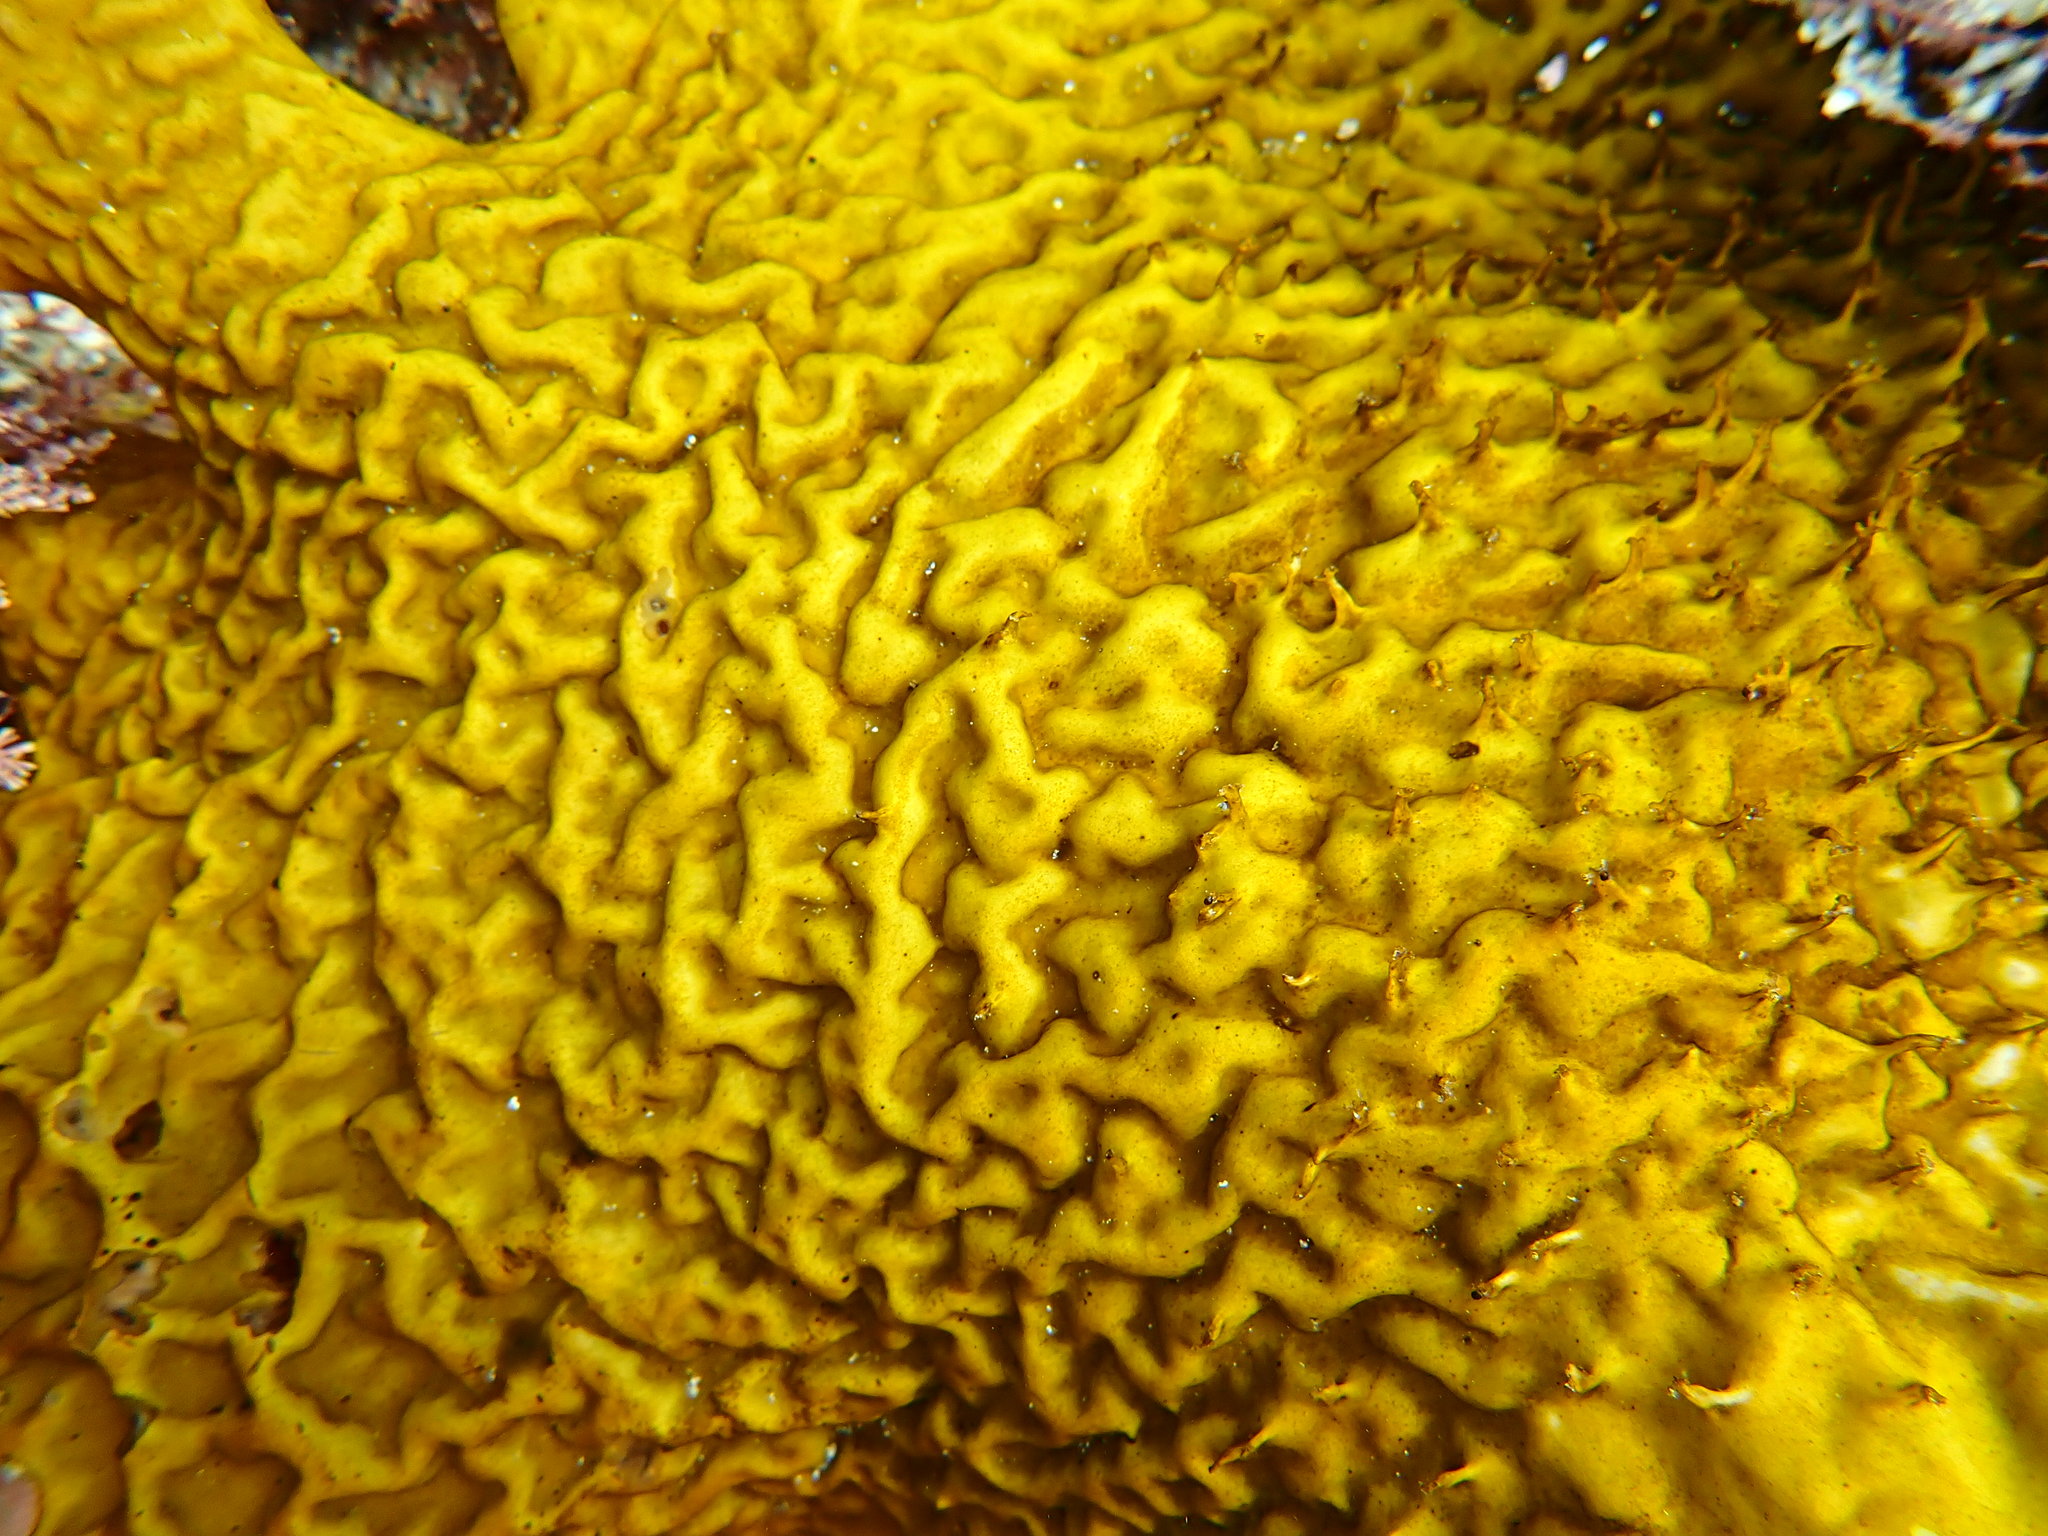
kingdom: Chromista
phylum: Ochrophyta
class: Phaeophyceae
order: Laminariales
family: Lessoniaceae
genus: Ecklonia
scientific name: Ecklonia radiata
